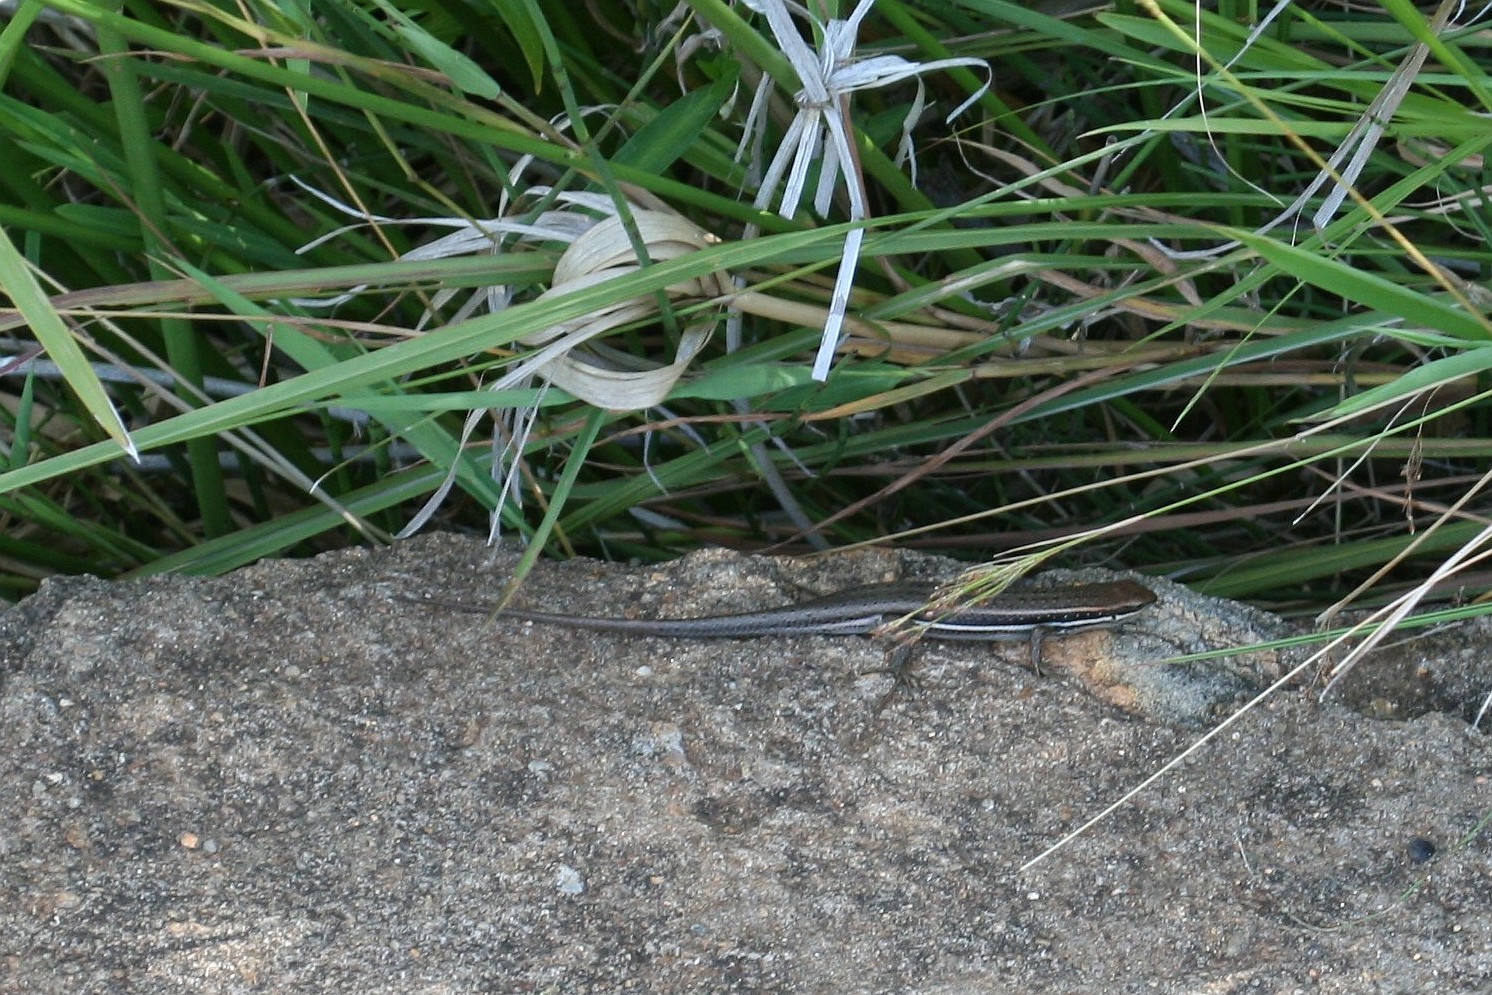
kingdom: Animalia
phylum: Chordata
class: Squamata
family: Scincidae
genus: Trachylepis
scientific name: Trachylepis gravenhorstii
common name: Gravenhorst's mabuya
